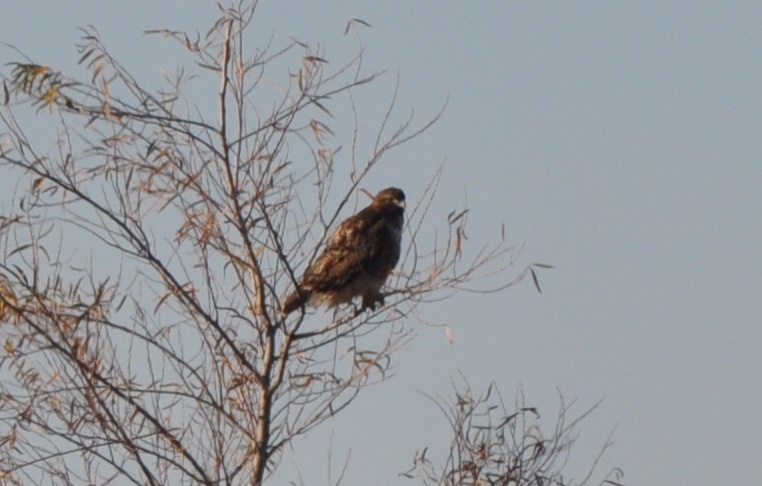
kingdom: Animalia
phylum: Chordata
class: Aves
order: Accipitriformes
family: Accipitridae
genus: Buteo
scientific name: Buteo jamaicensis
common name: Red-tailed hawk
